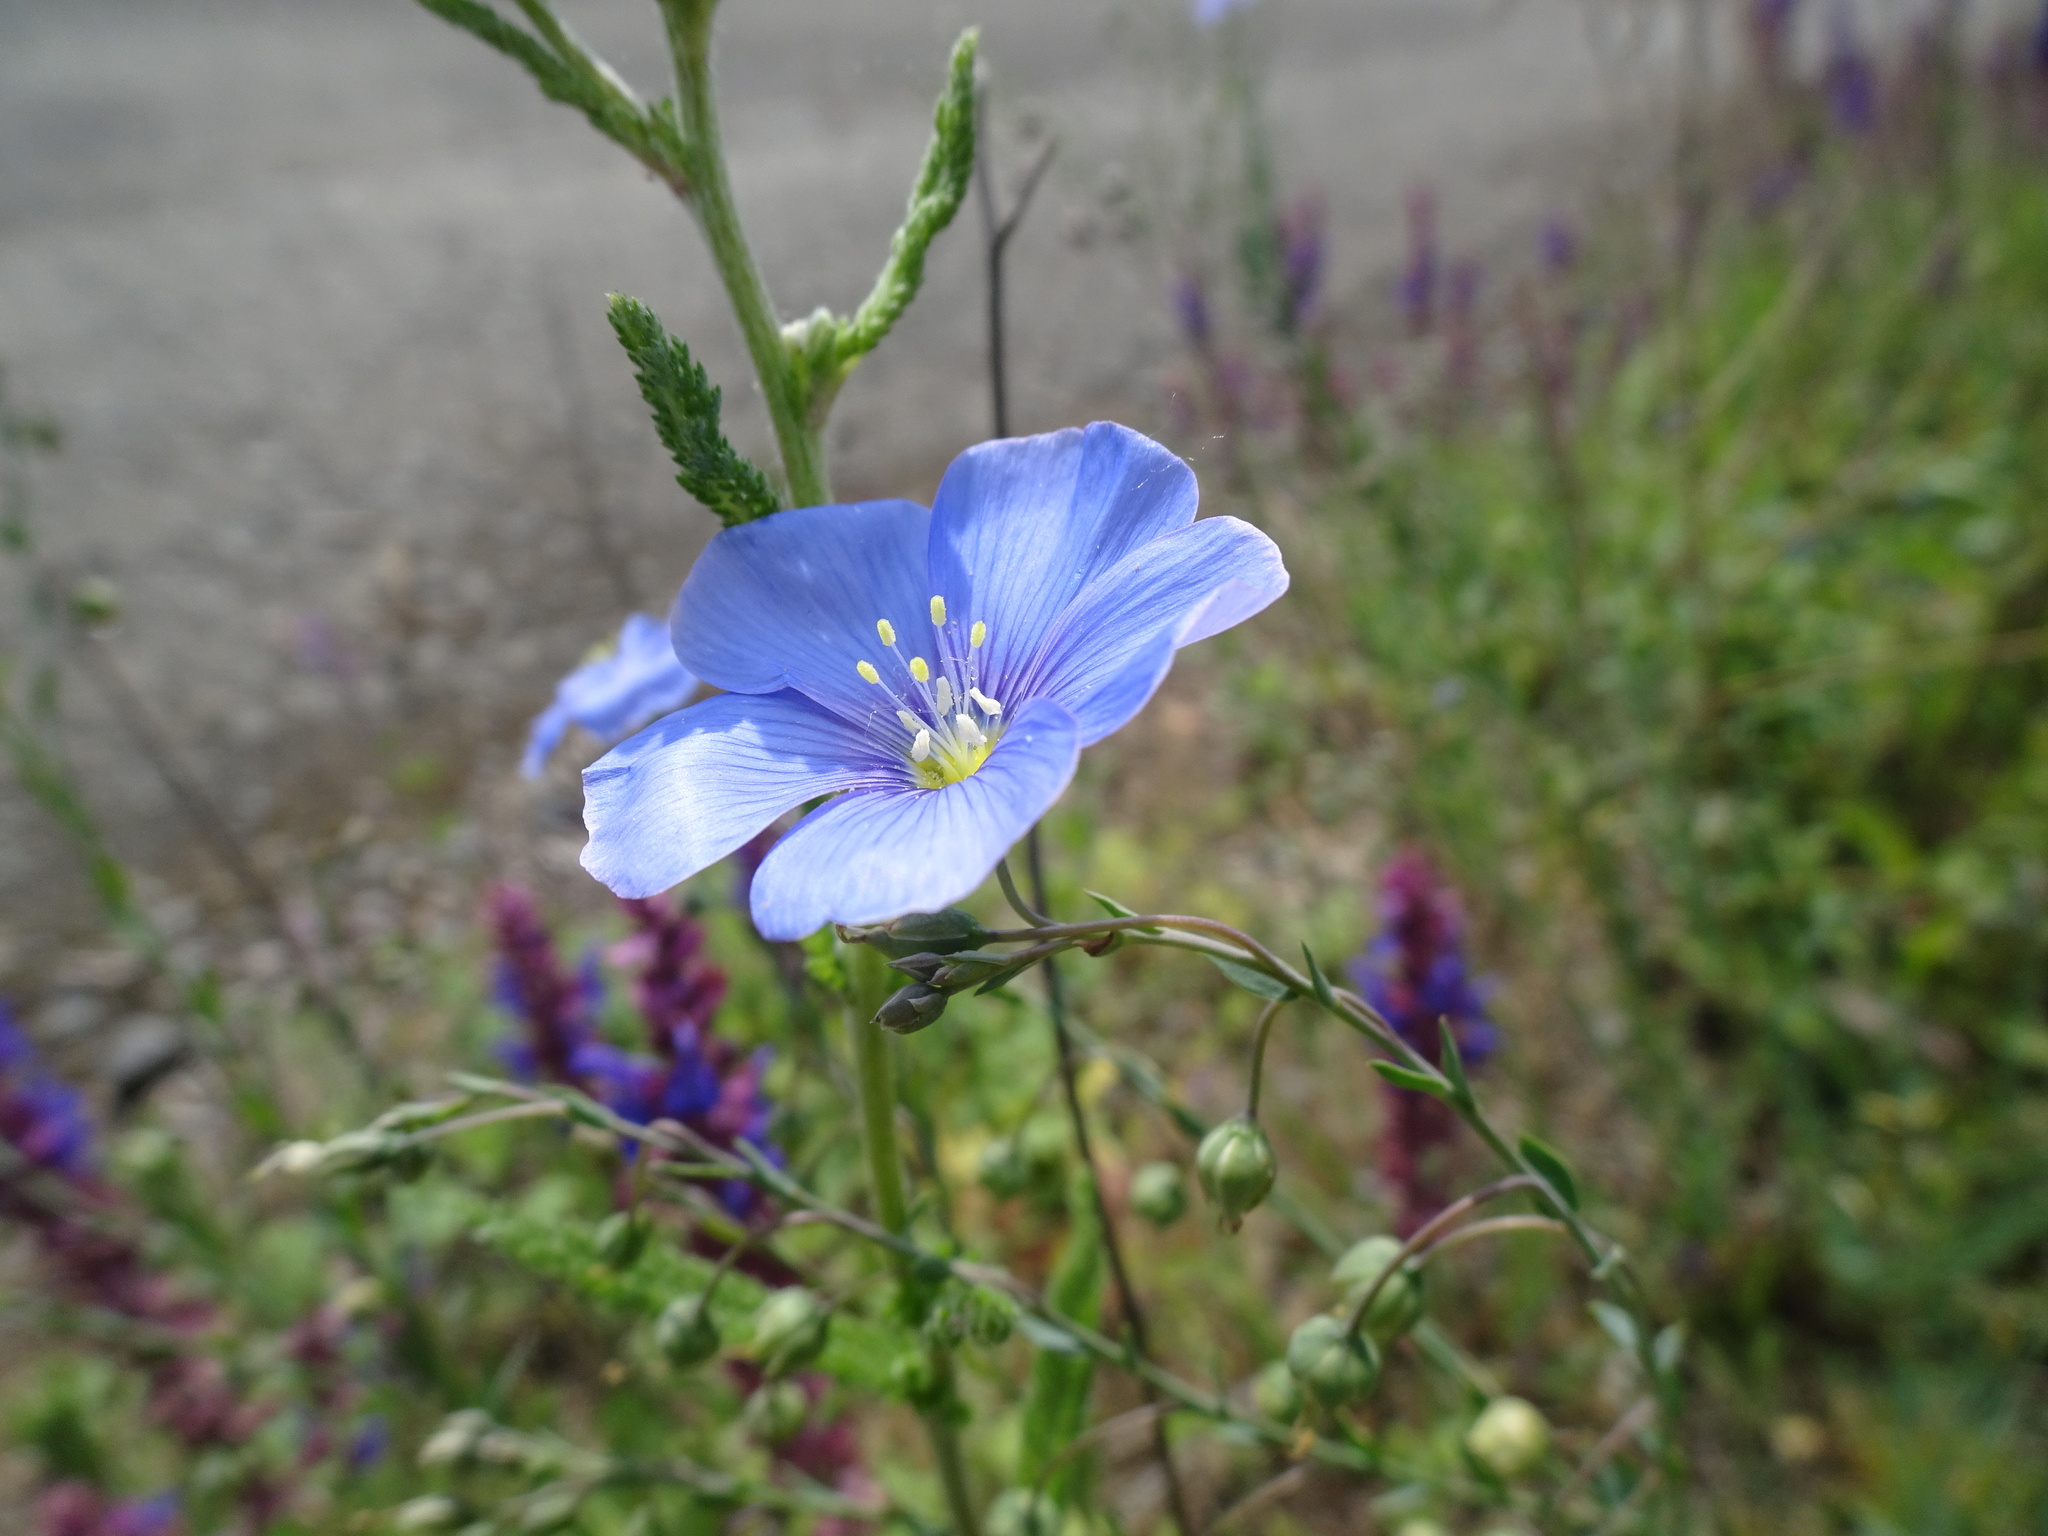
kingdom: Plantae
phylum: Tracheophyta
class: Magnoliopsida
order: Malpighiales
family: Linaceae
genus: Linum
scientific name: Linum austriacum
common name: Austrian flax
